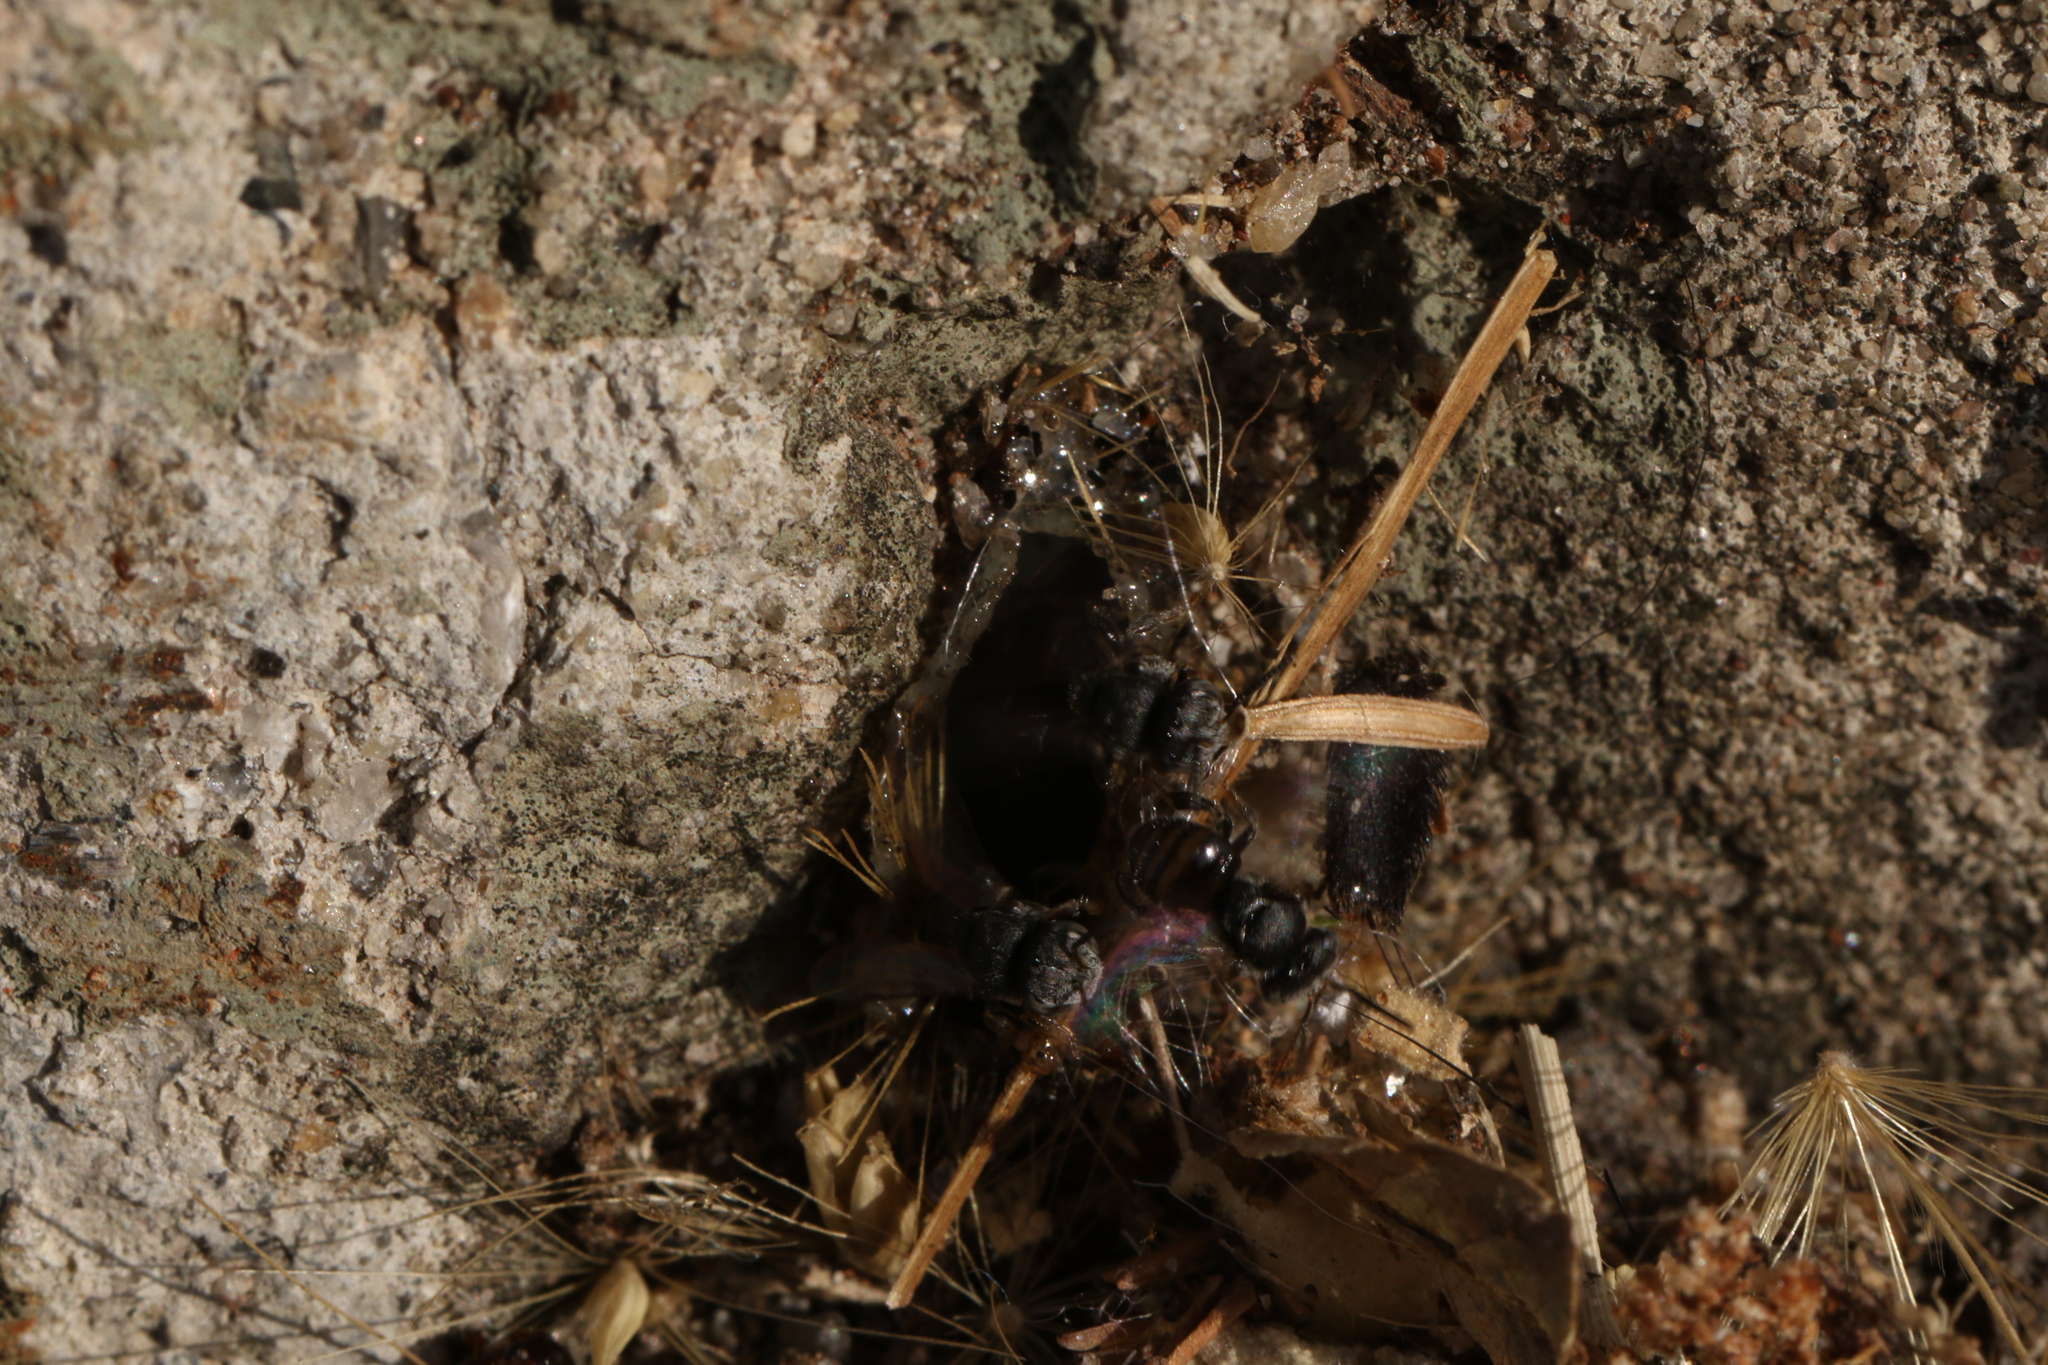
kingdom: Animalia
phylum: Arthropoda
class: Insecta
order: Hymenoptera
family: Apidae
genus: Friesella
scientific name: Friesella schrottkyi
